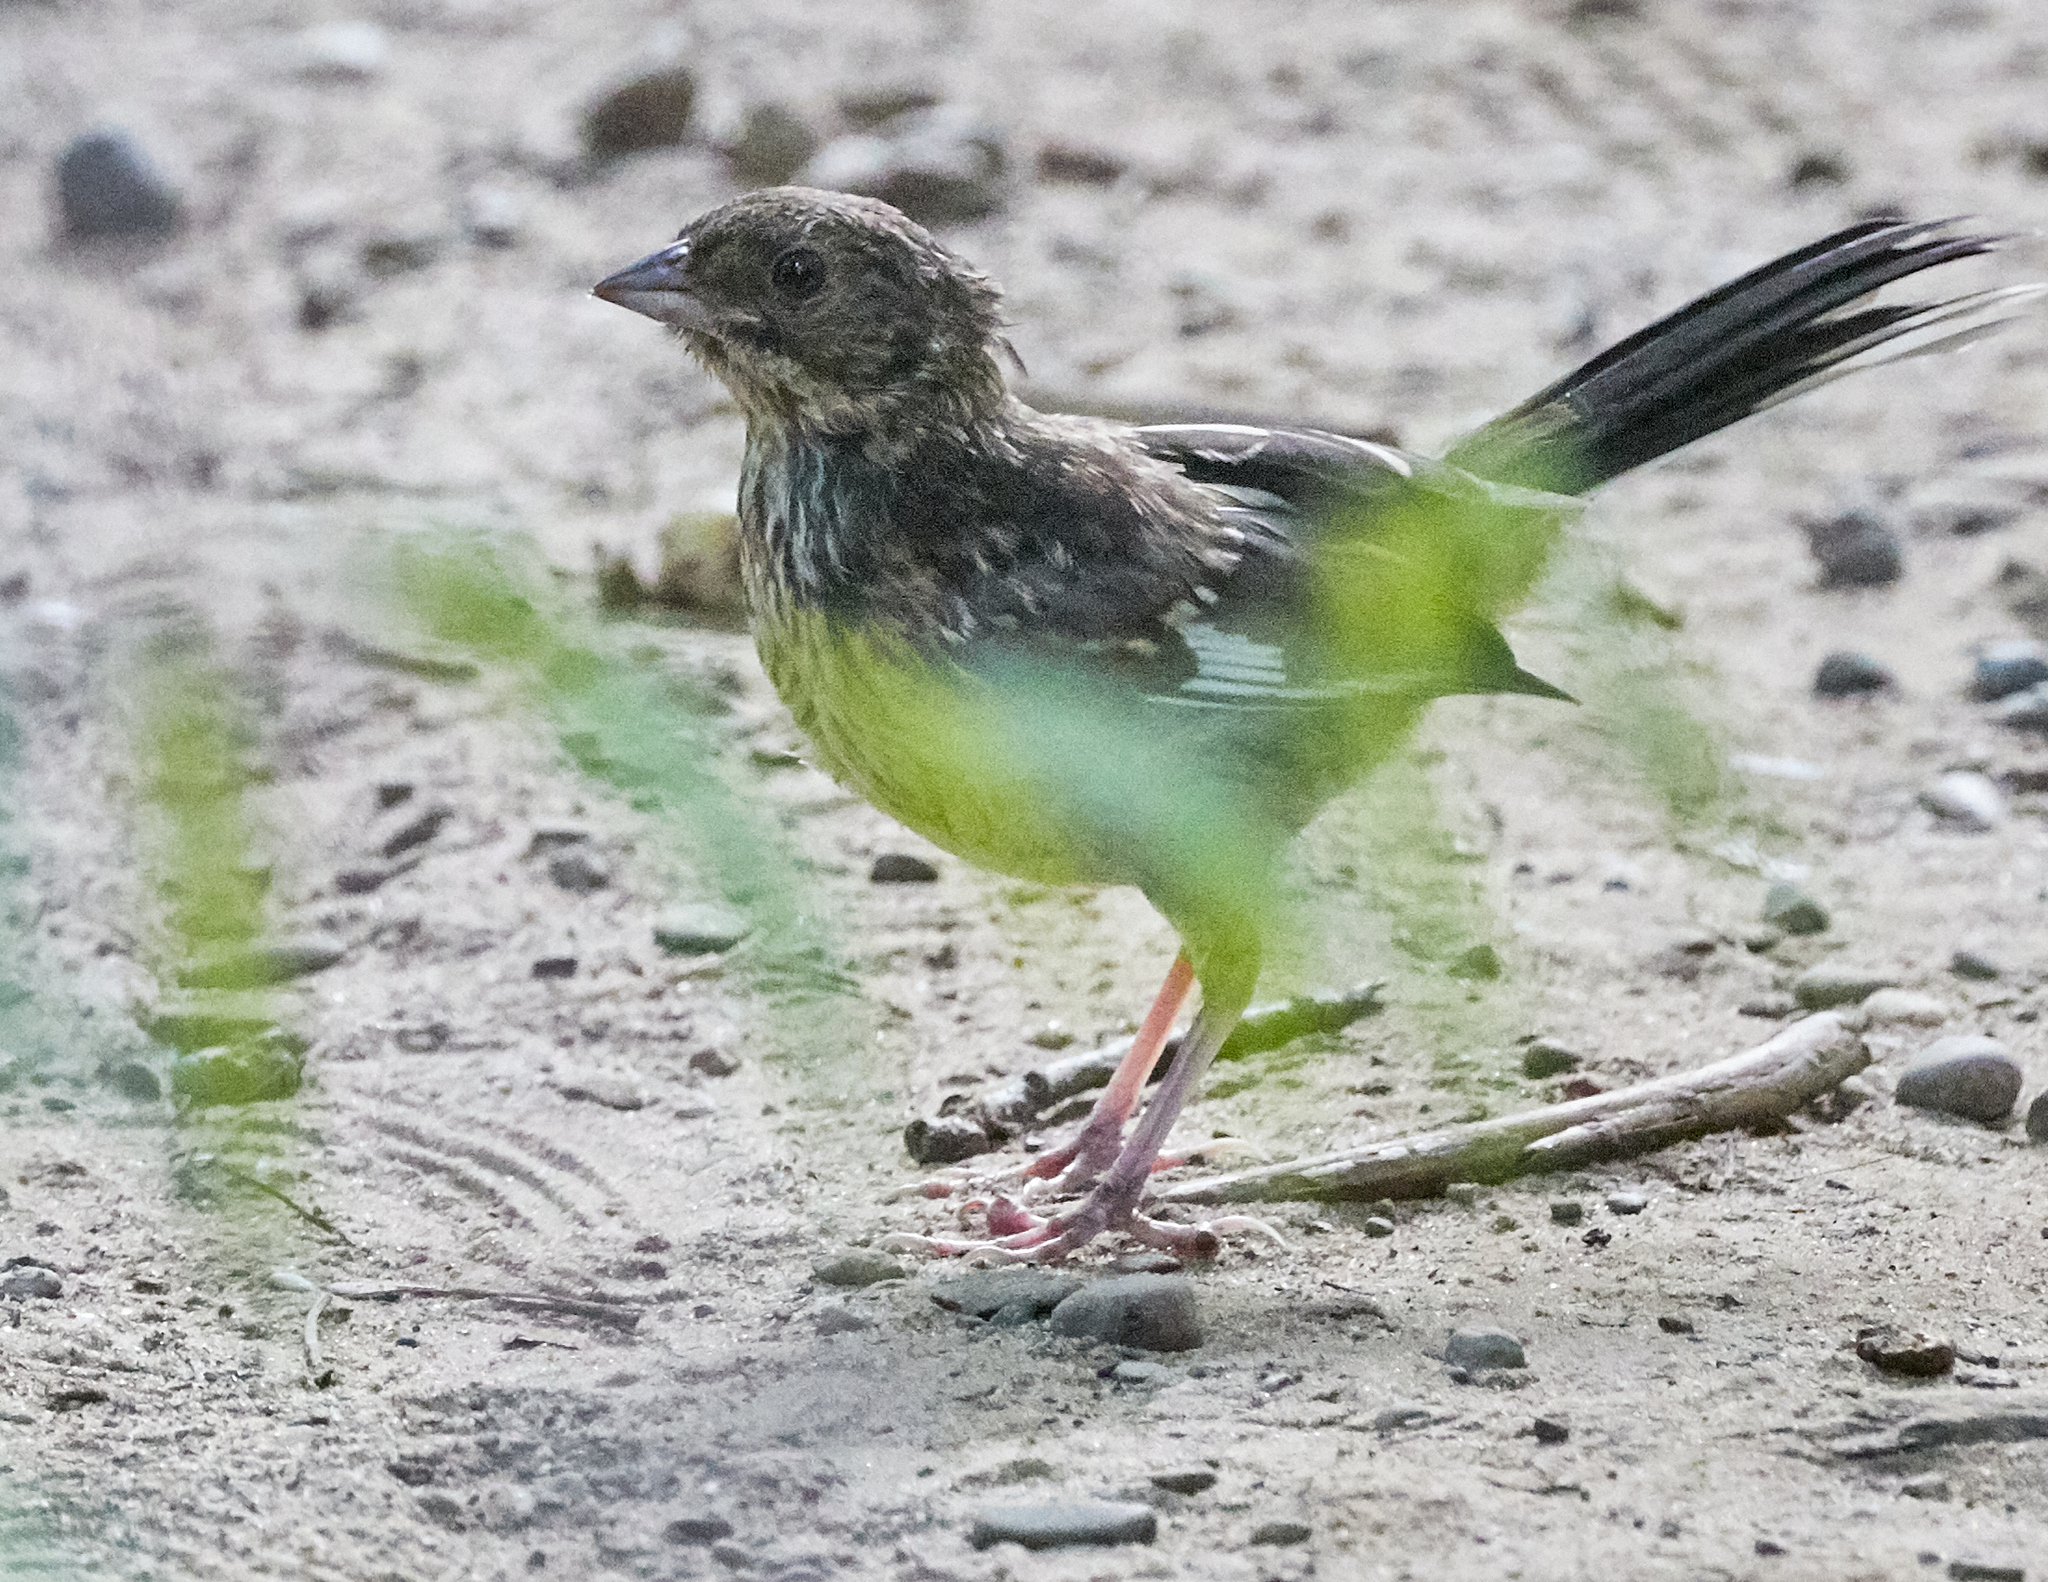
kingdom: Animalia
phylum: Chordata
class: Aves
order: Passeriformes
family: Passerellidae
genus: Pipilo
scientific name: Pipilo erythrophthalmus
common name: Eastern towhee
